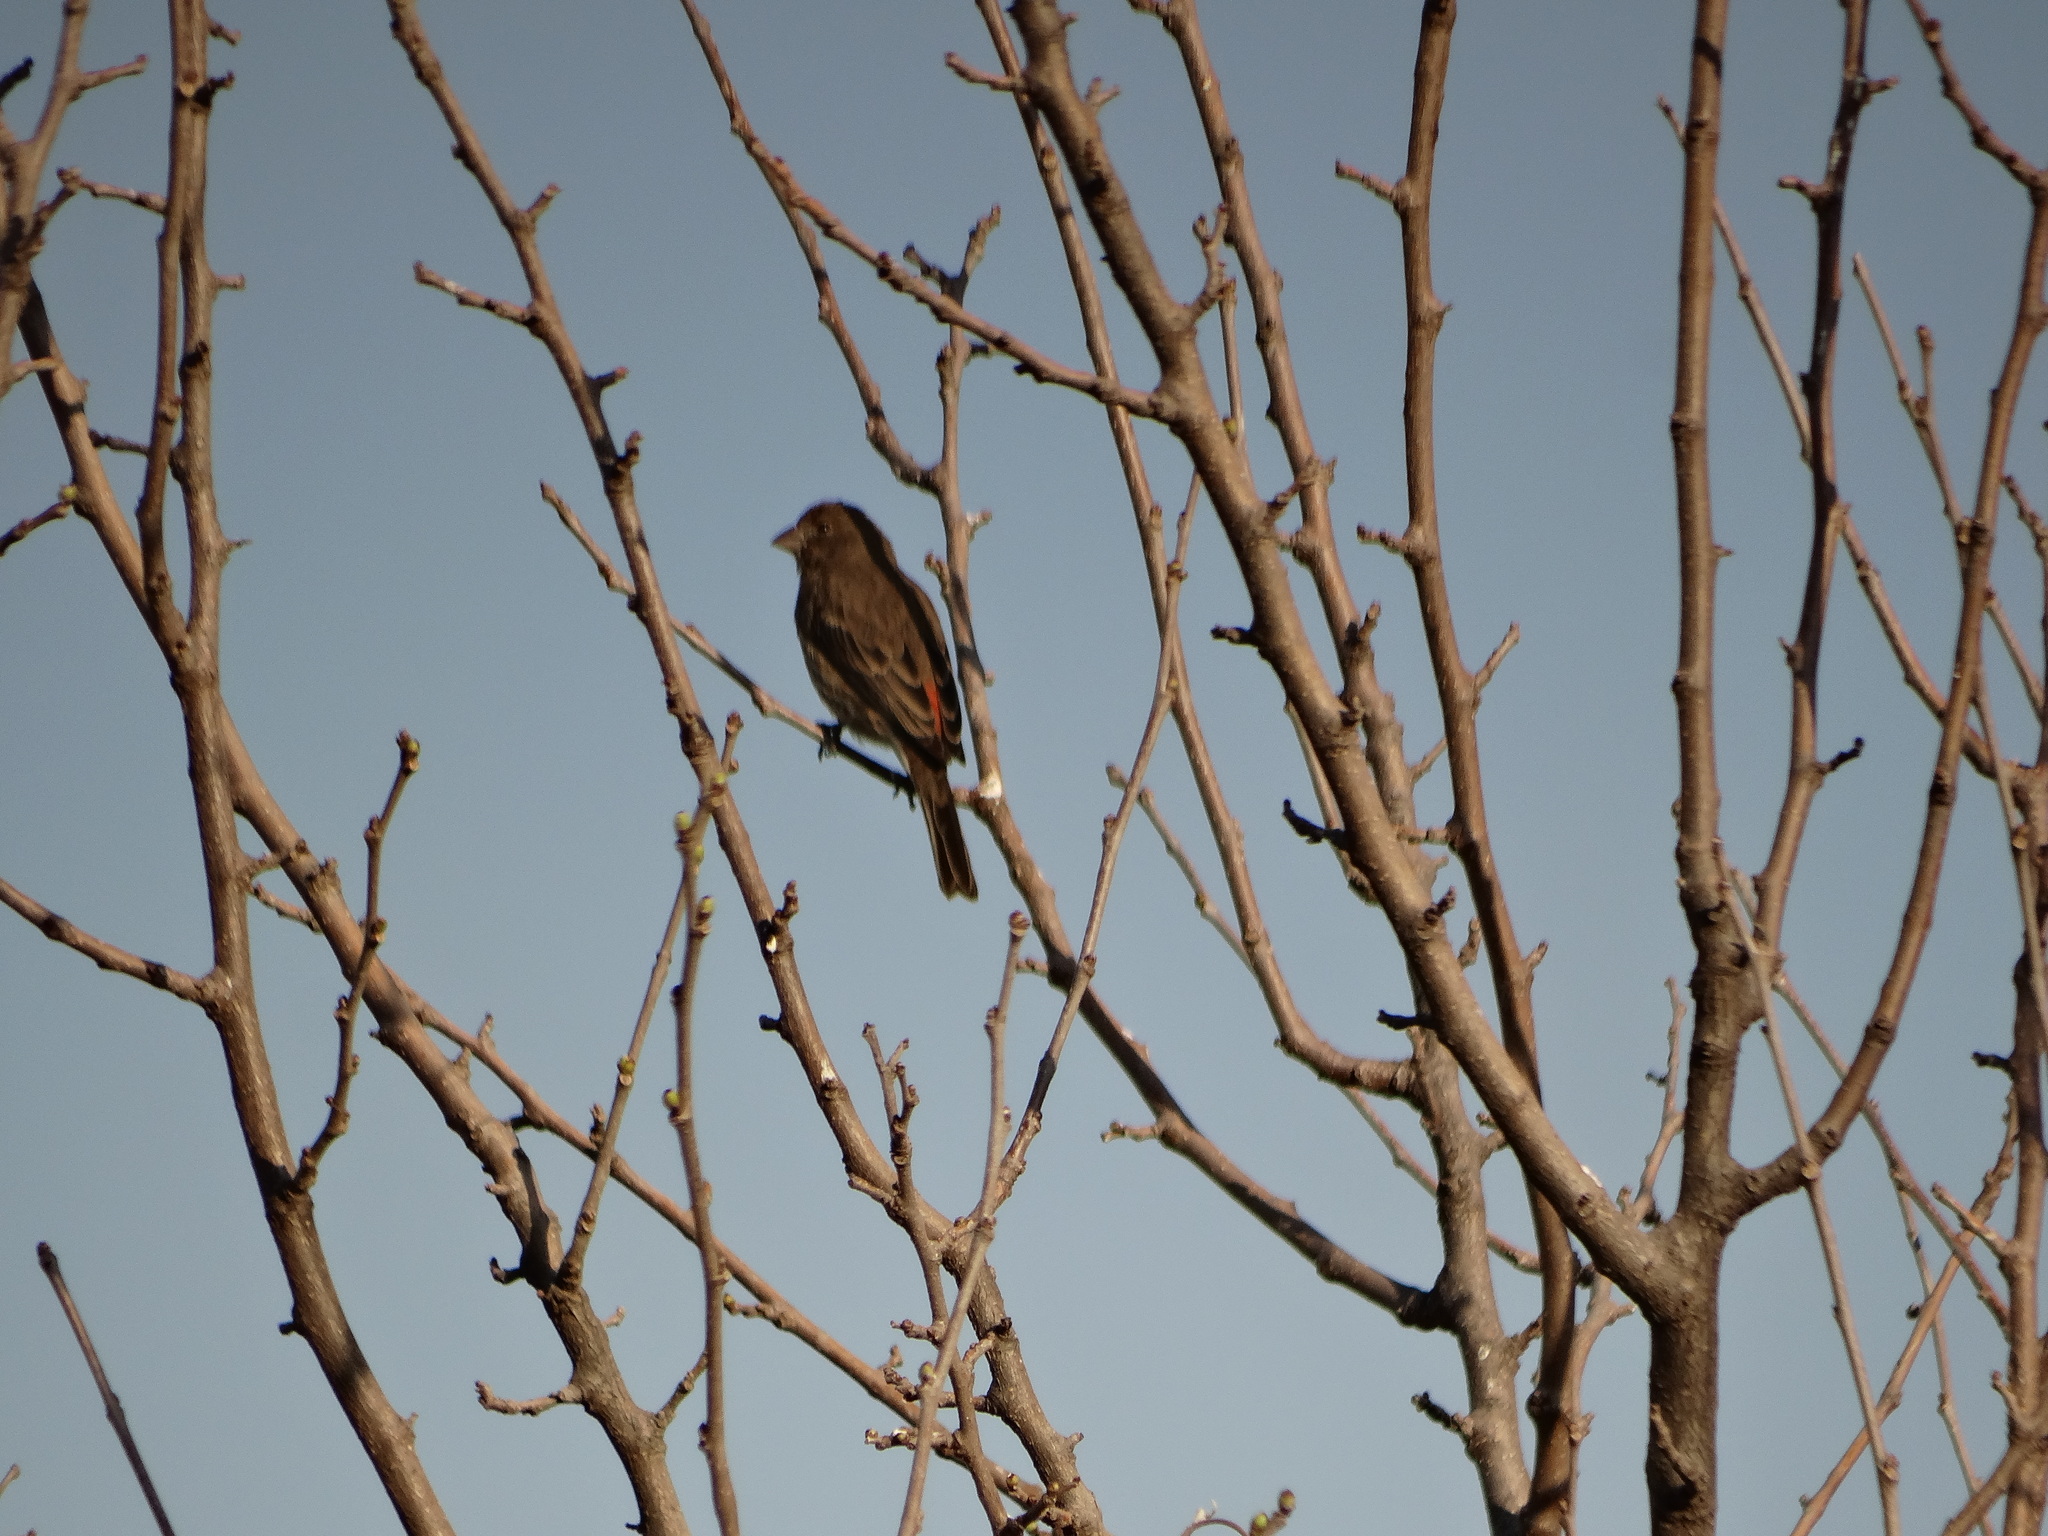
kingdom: Animalia
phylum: Chordata
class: Aves
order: Passeriformes
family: Fringillidae
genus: Haemorhous
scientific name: Haemorhous mexicanus
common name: House finch
